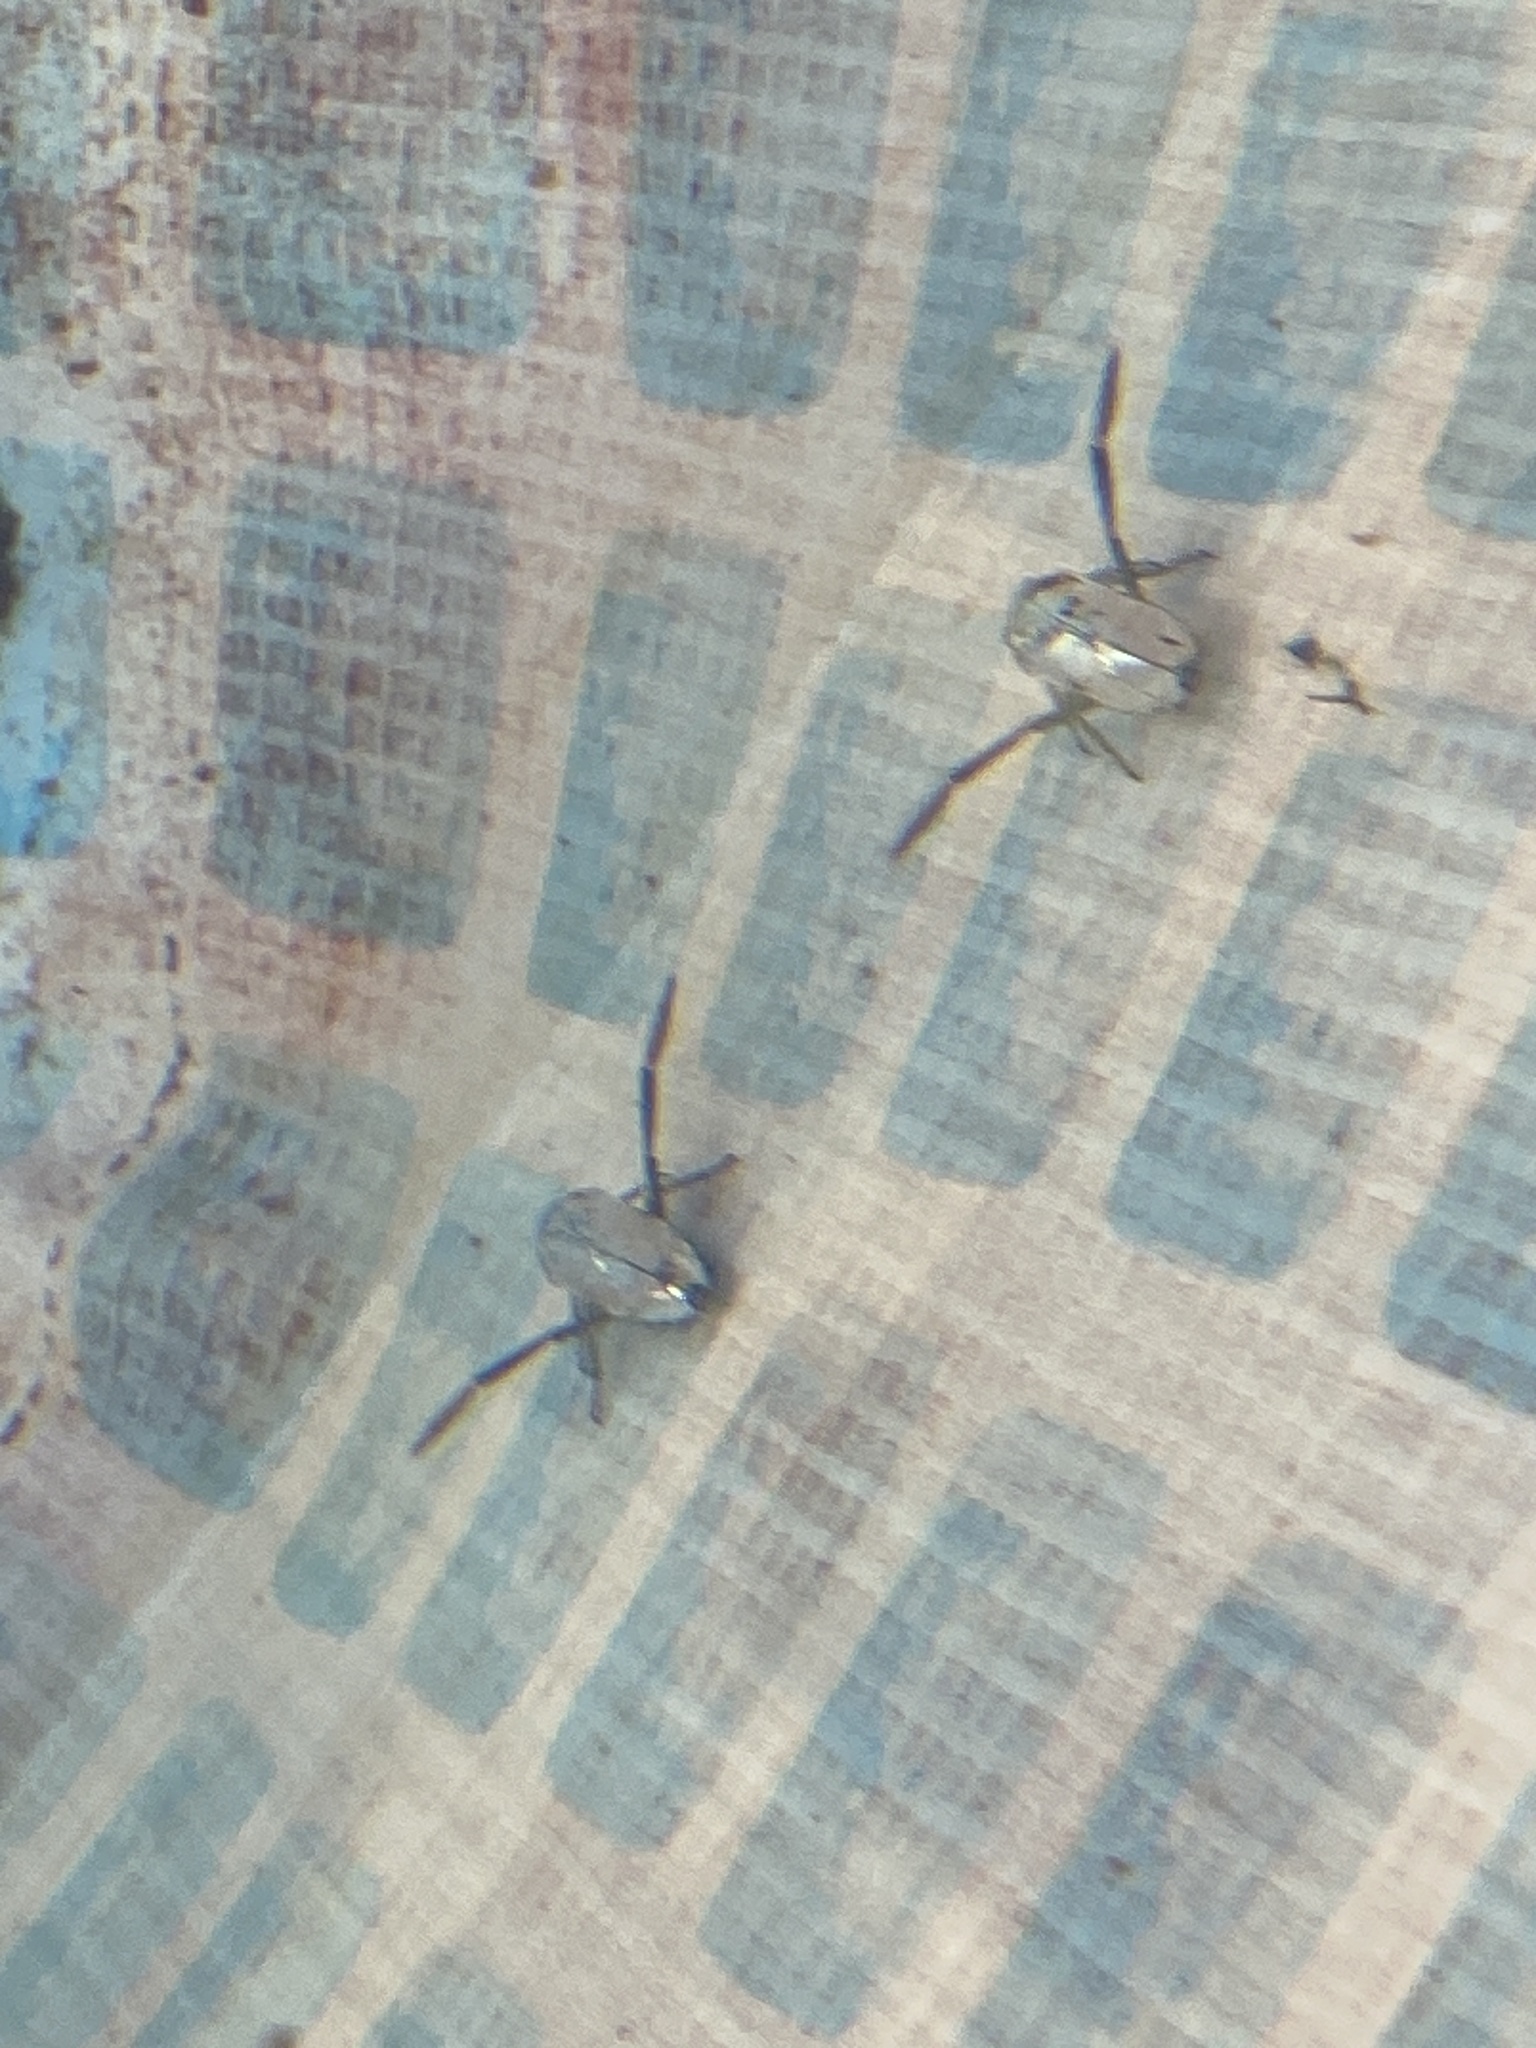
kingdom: Animalia
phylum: Arthropoda
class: Insecta
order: Hemiptera
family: Notonectidae
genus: Notonecta
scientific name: Notonecta
